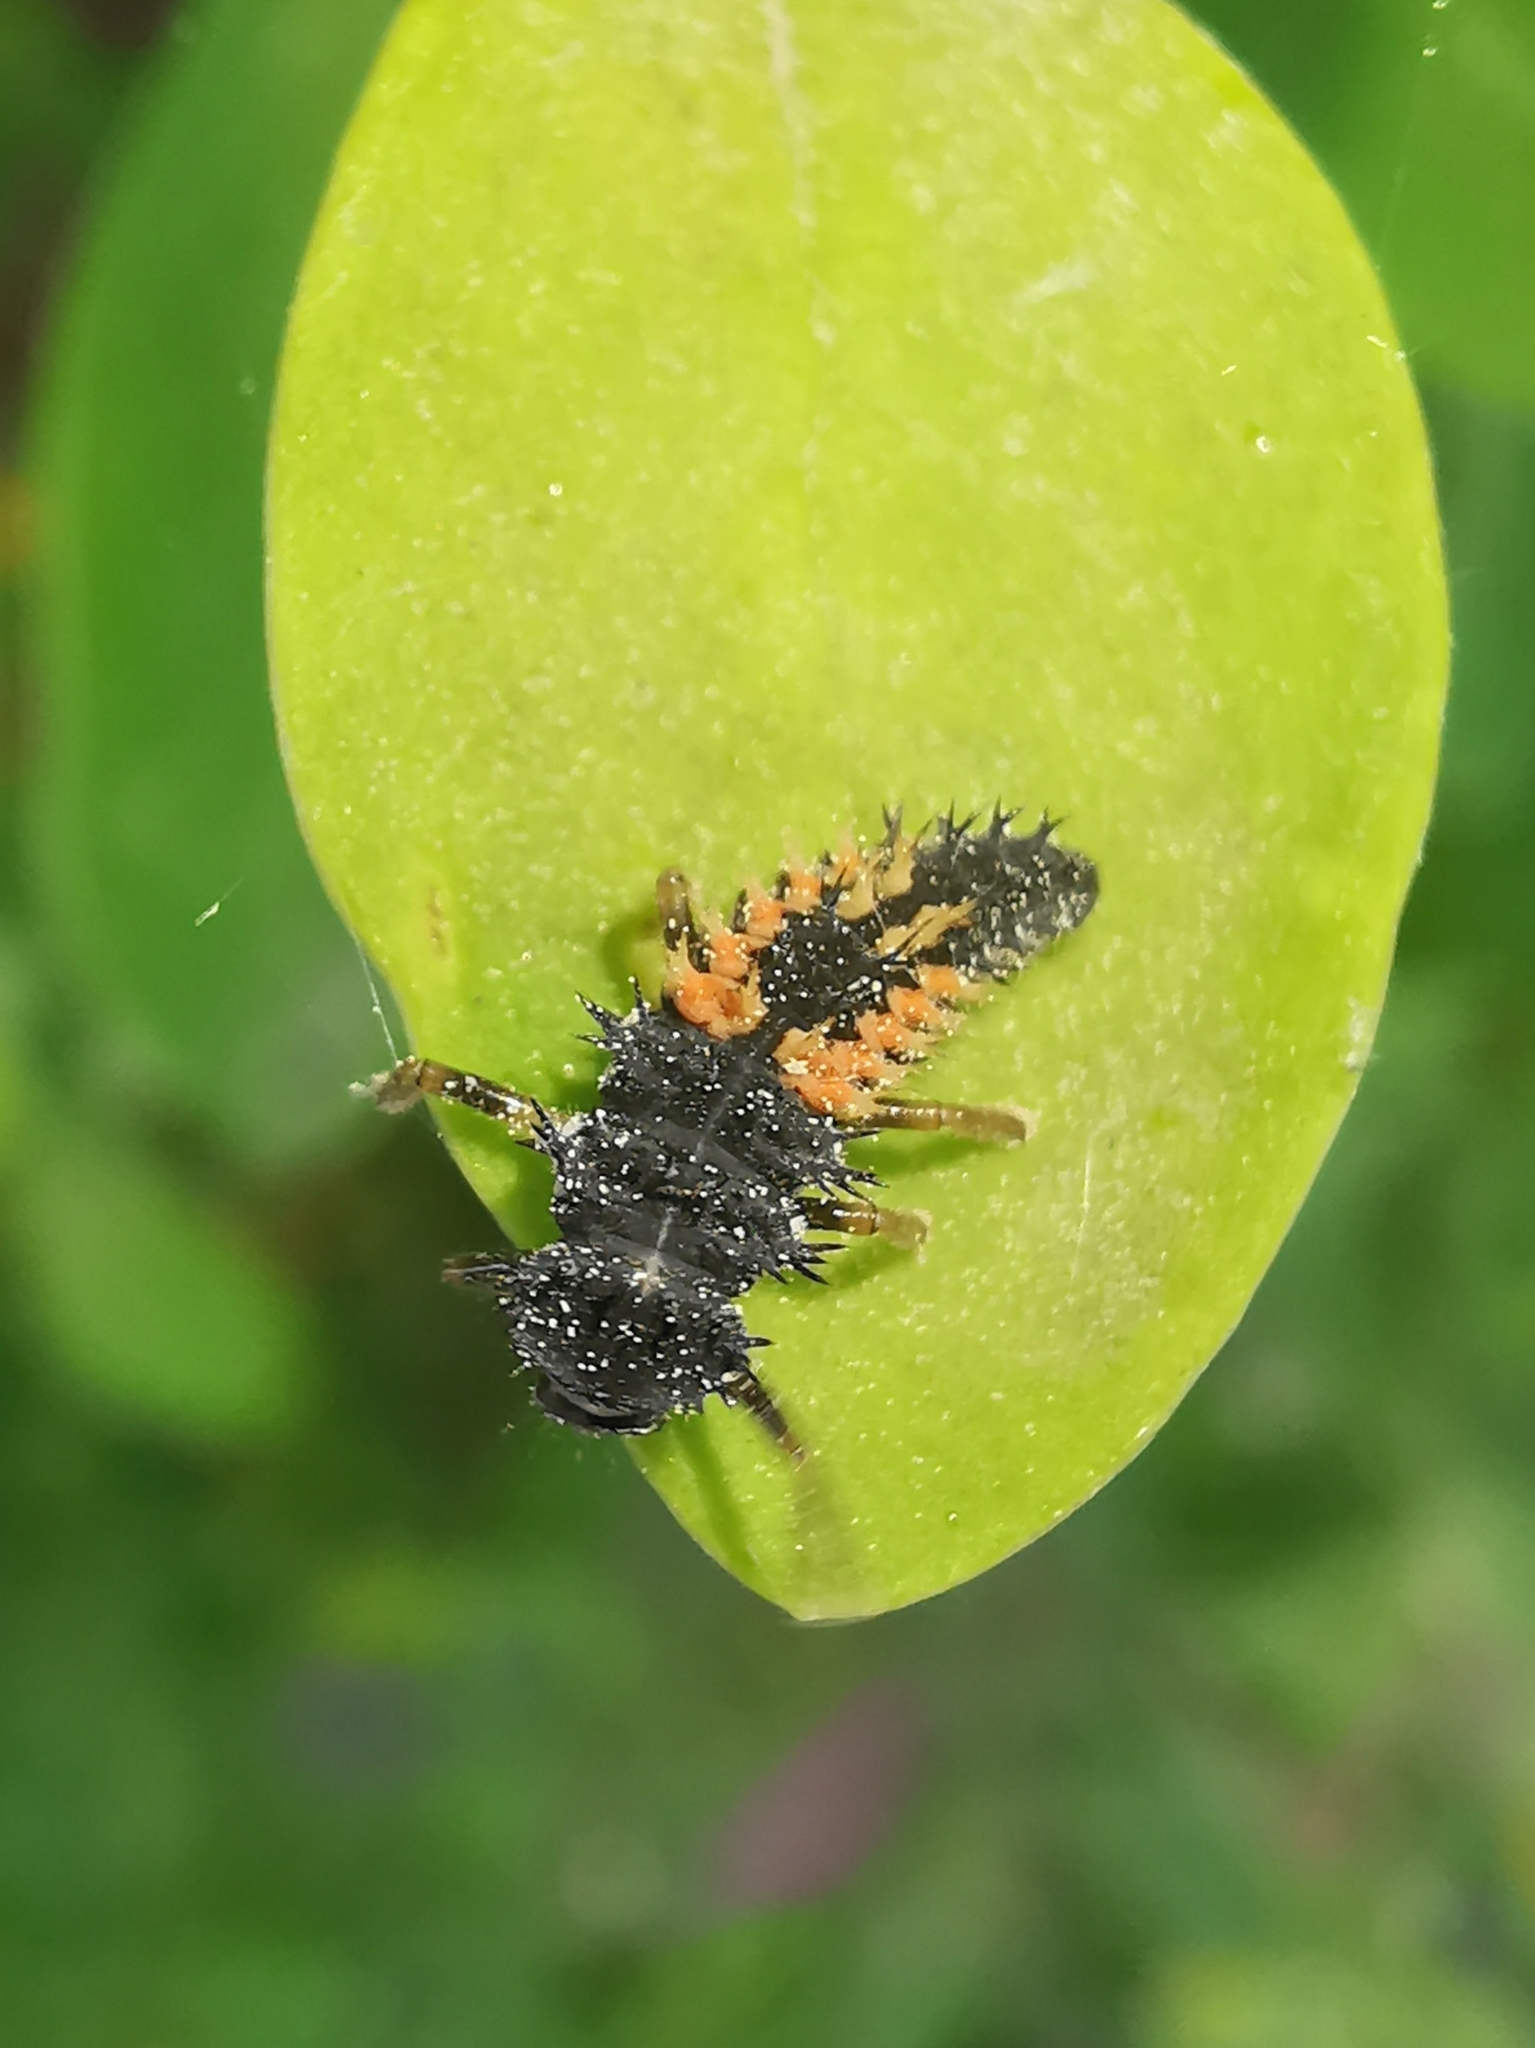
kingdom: Animalia
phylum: Arthropoda
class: Insecta
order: Coleoptera
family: Coccinellidae
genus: Harmonia
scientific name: Harmonia axyridis
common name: Harlequin ladybird
